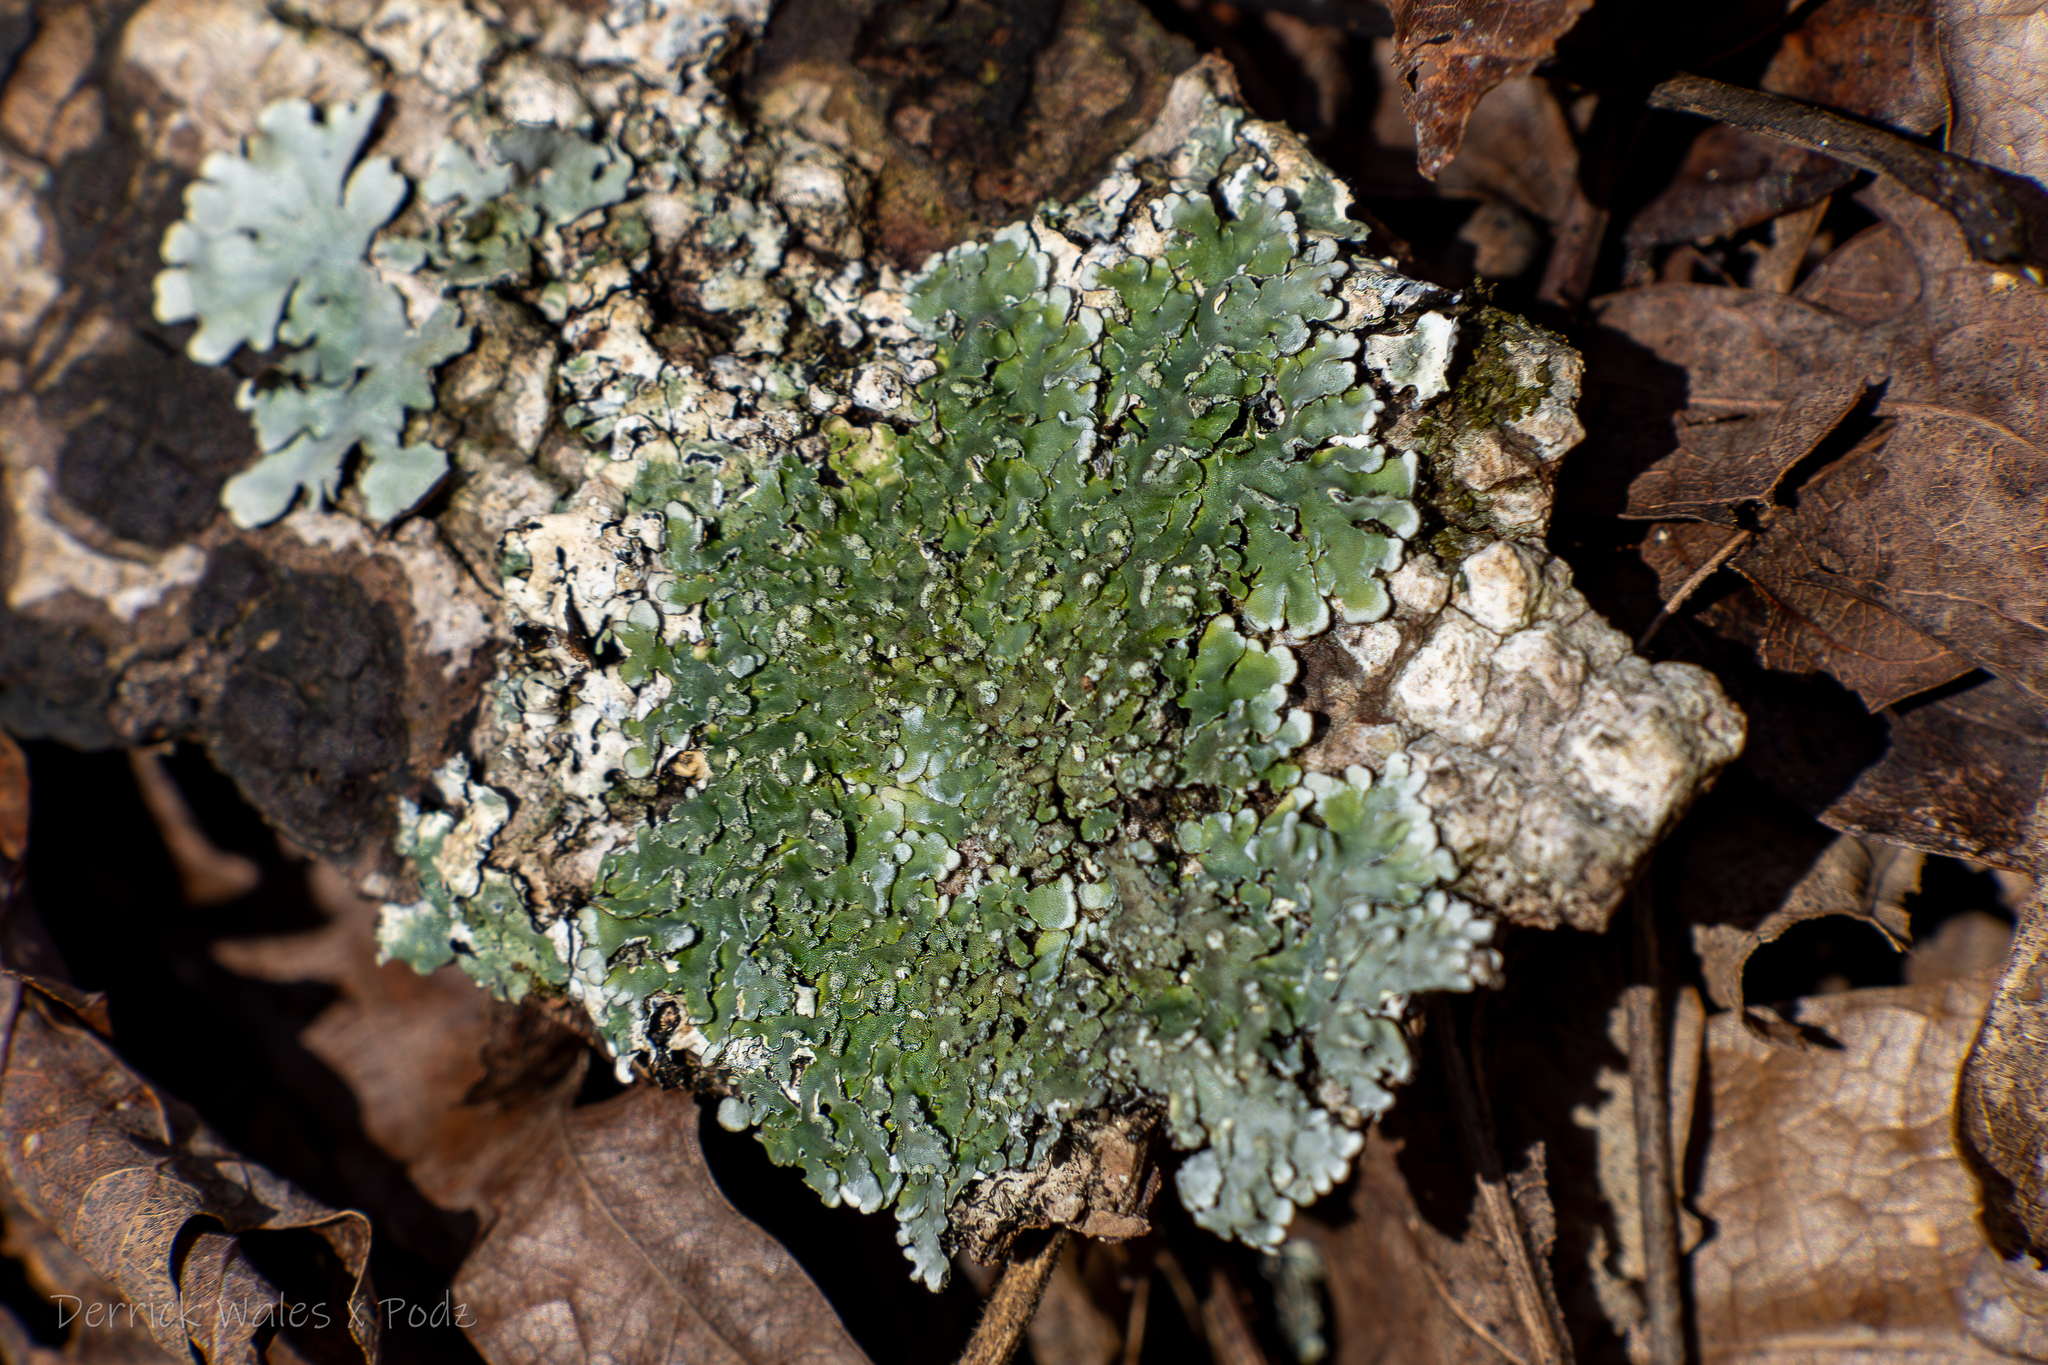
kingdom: Fungi
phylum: Ascomycota
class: Lecanoromycetes
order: Caliciales
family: Caliciaceae
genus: Pyxine
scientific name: Pyxine sorediata
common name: Mustard lichen
